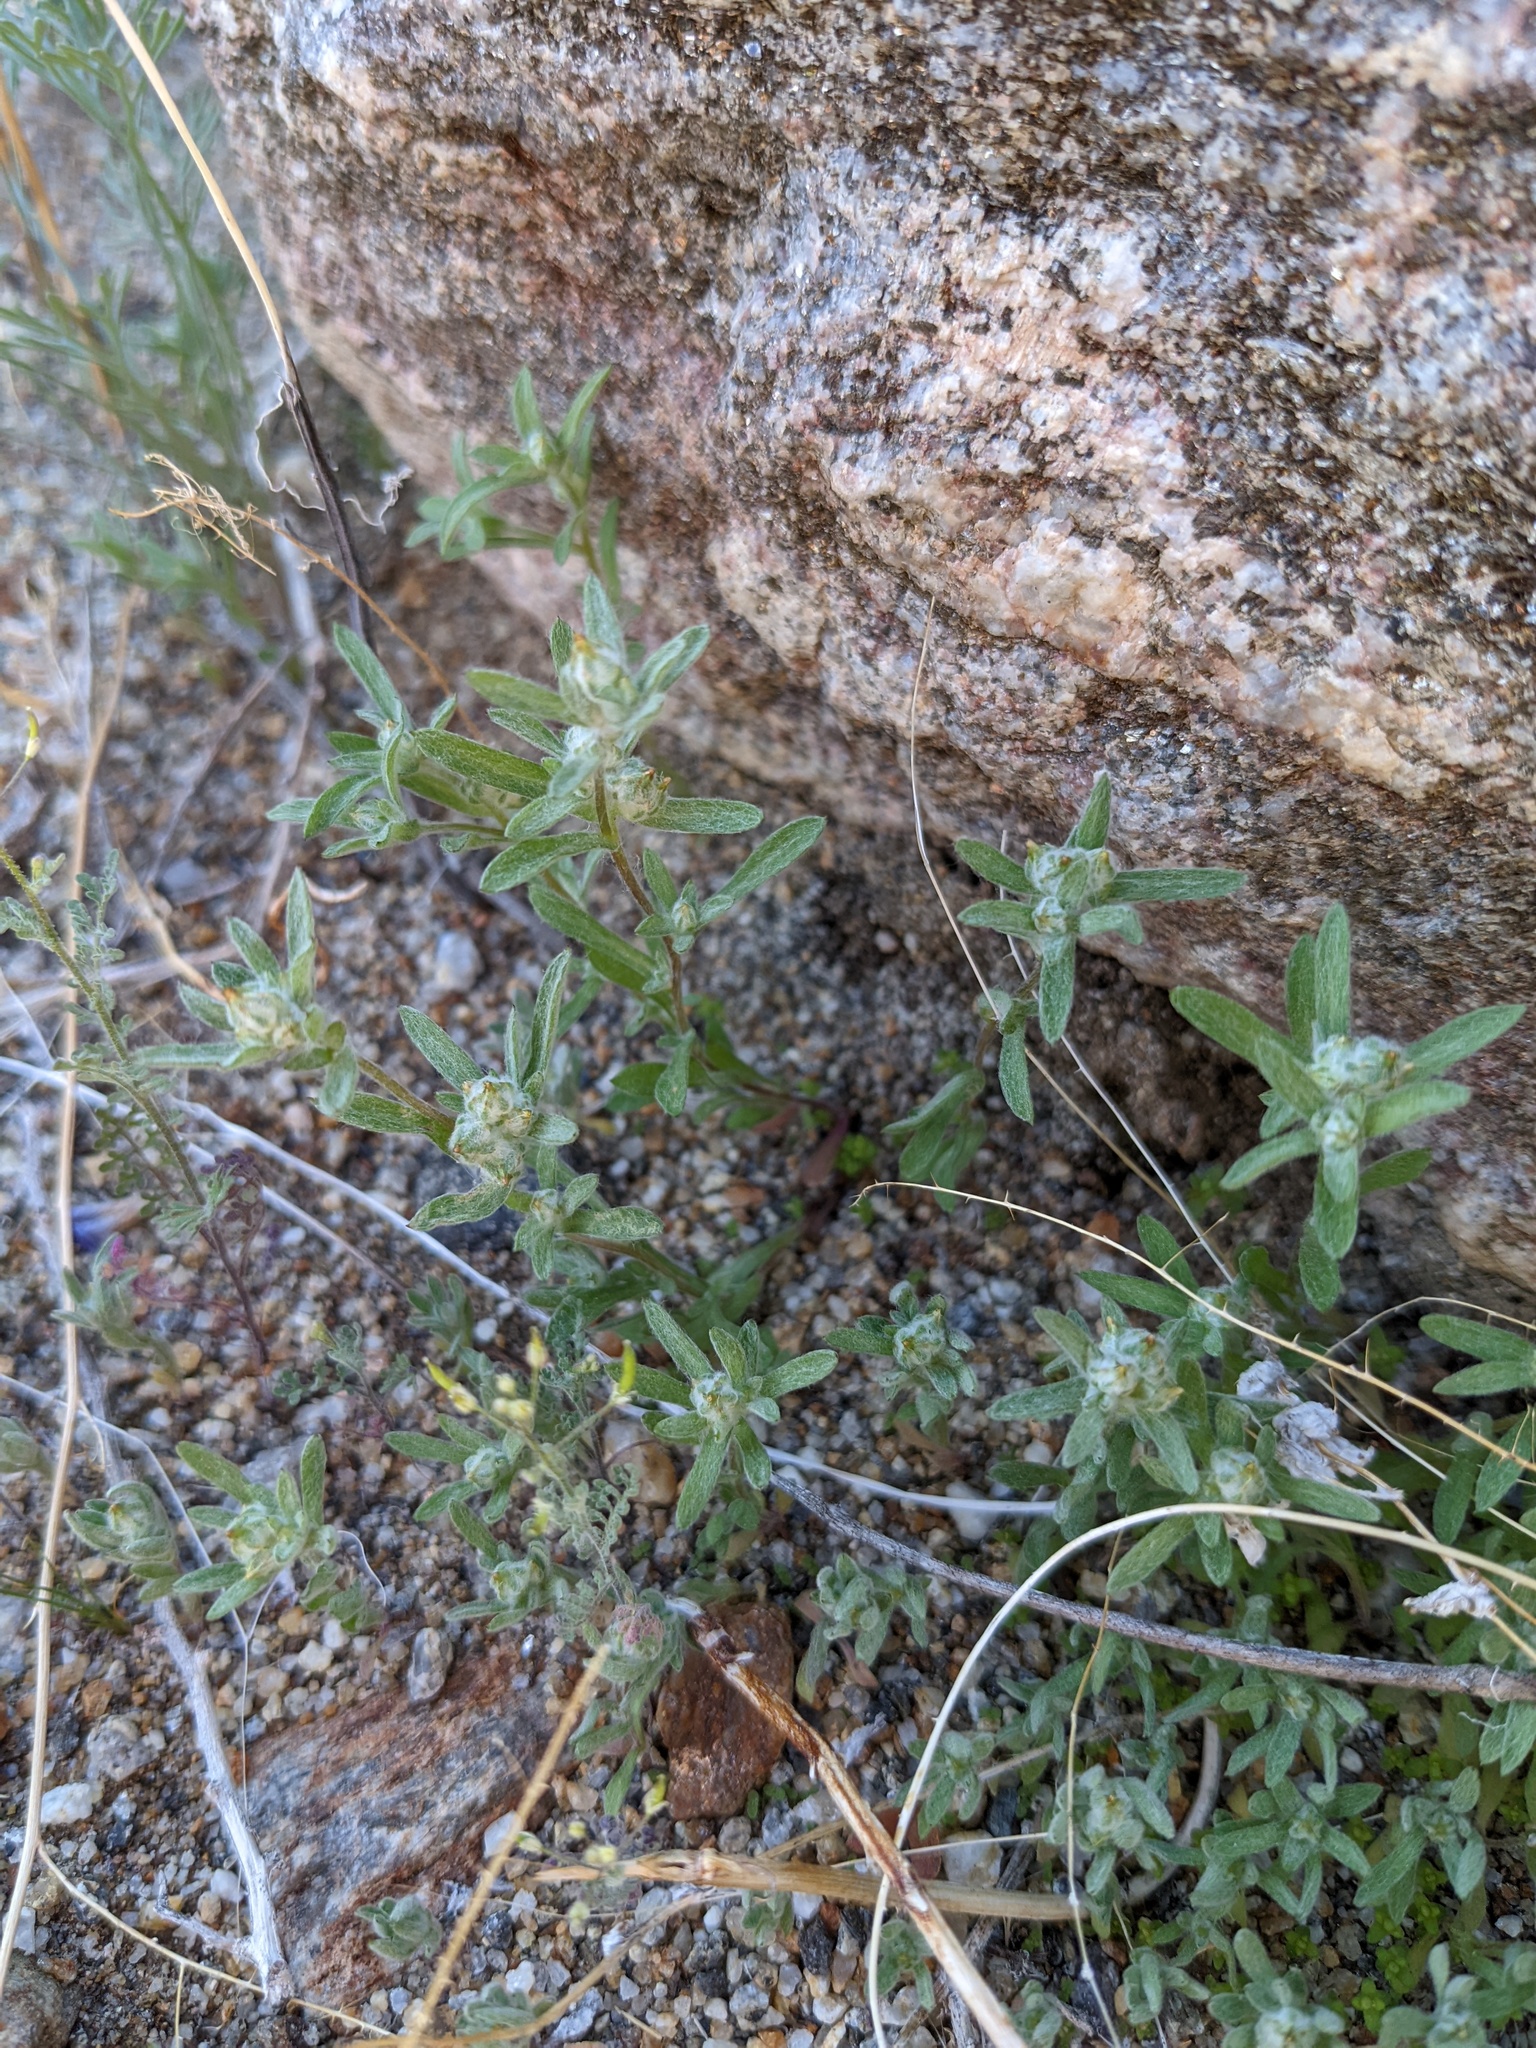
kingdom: Plantae
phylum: Tracheophyta
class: Magnoliopsida
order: Asterales
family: Asteraceae
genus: Logfia
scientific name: Logfia californica
